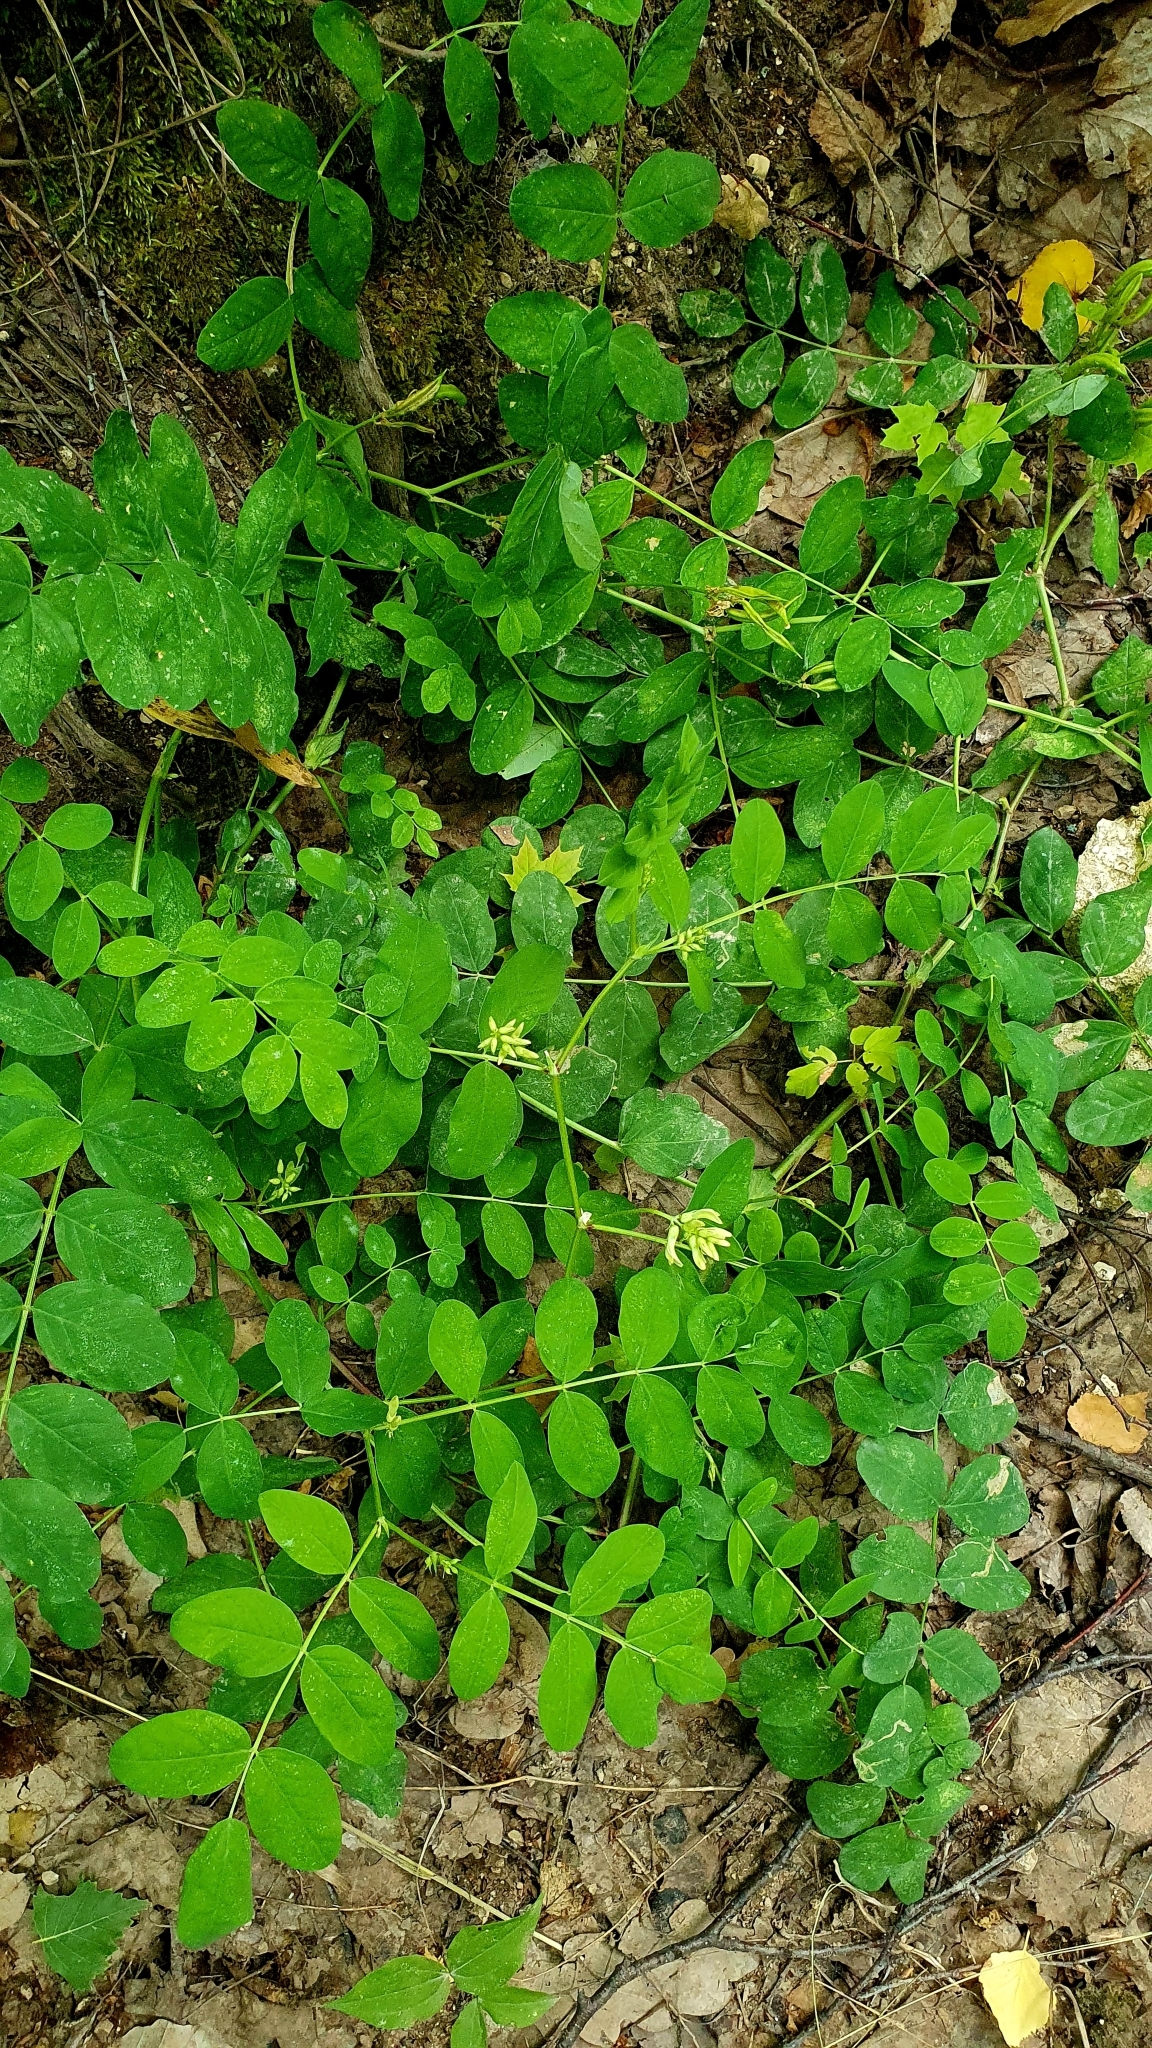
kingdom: Plantae
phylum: Tracheophyta
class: Magnoliopsida
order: Fabales
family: Fabaceae
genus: Astragalus
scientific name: Astragalus glycyphyllos
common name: Wild liquorice
